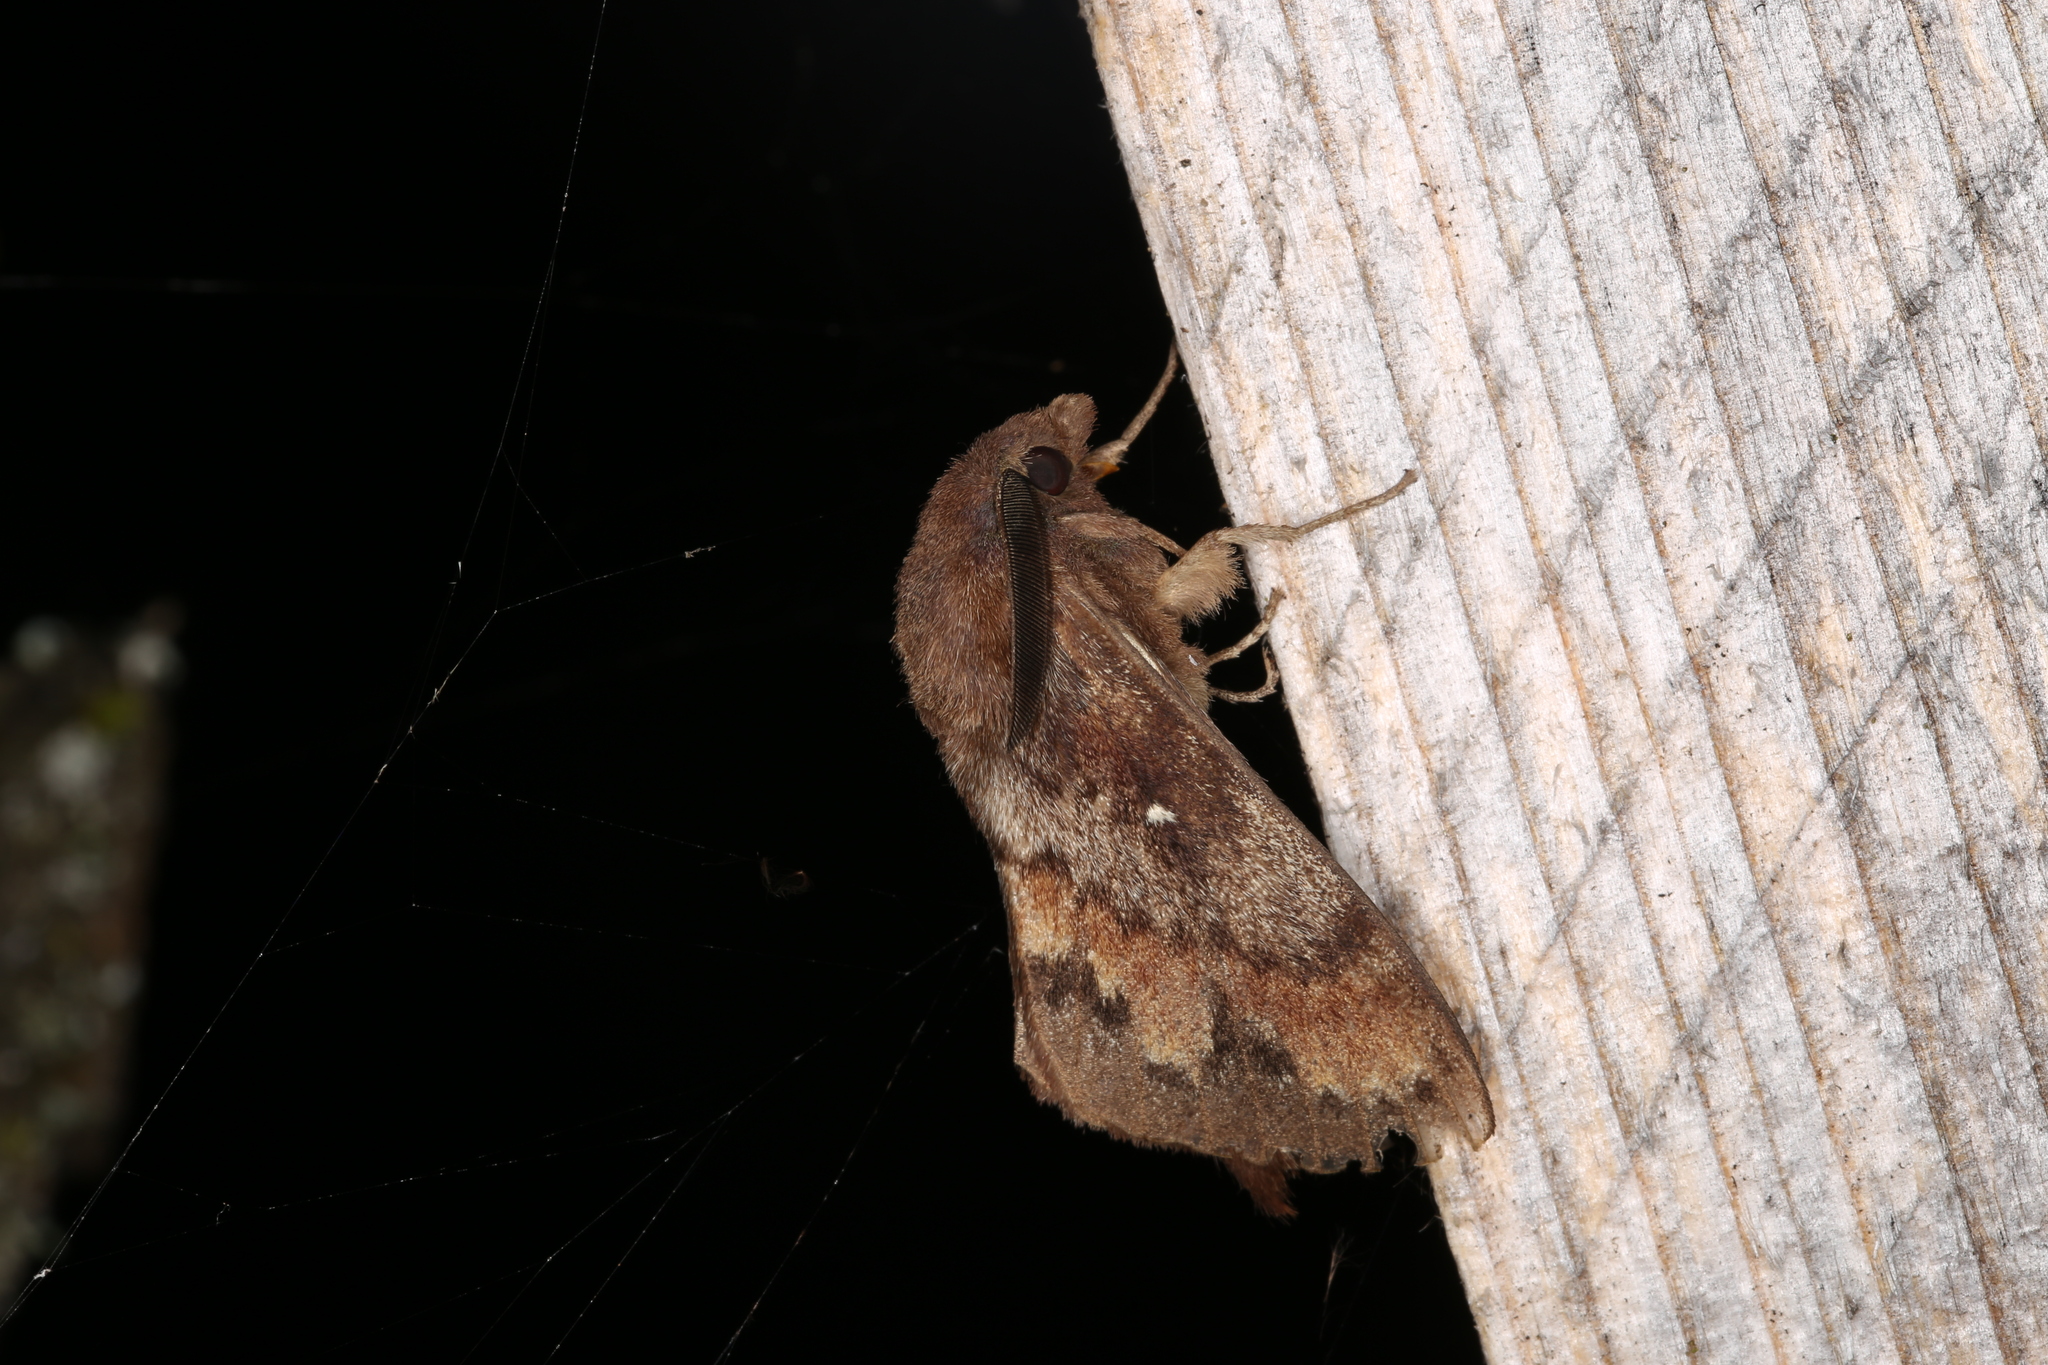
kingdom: Animalia
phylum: Arthropoda
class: Insecta
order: Lepidoptera
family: Lasiocampidae
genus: Dendrolimus
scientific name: Dendrolimus pini
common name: Pine-tree lappet
